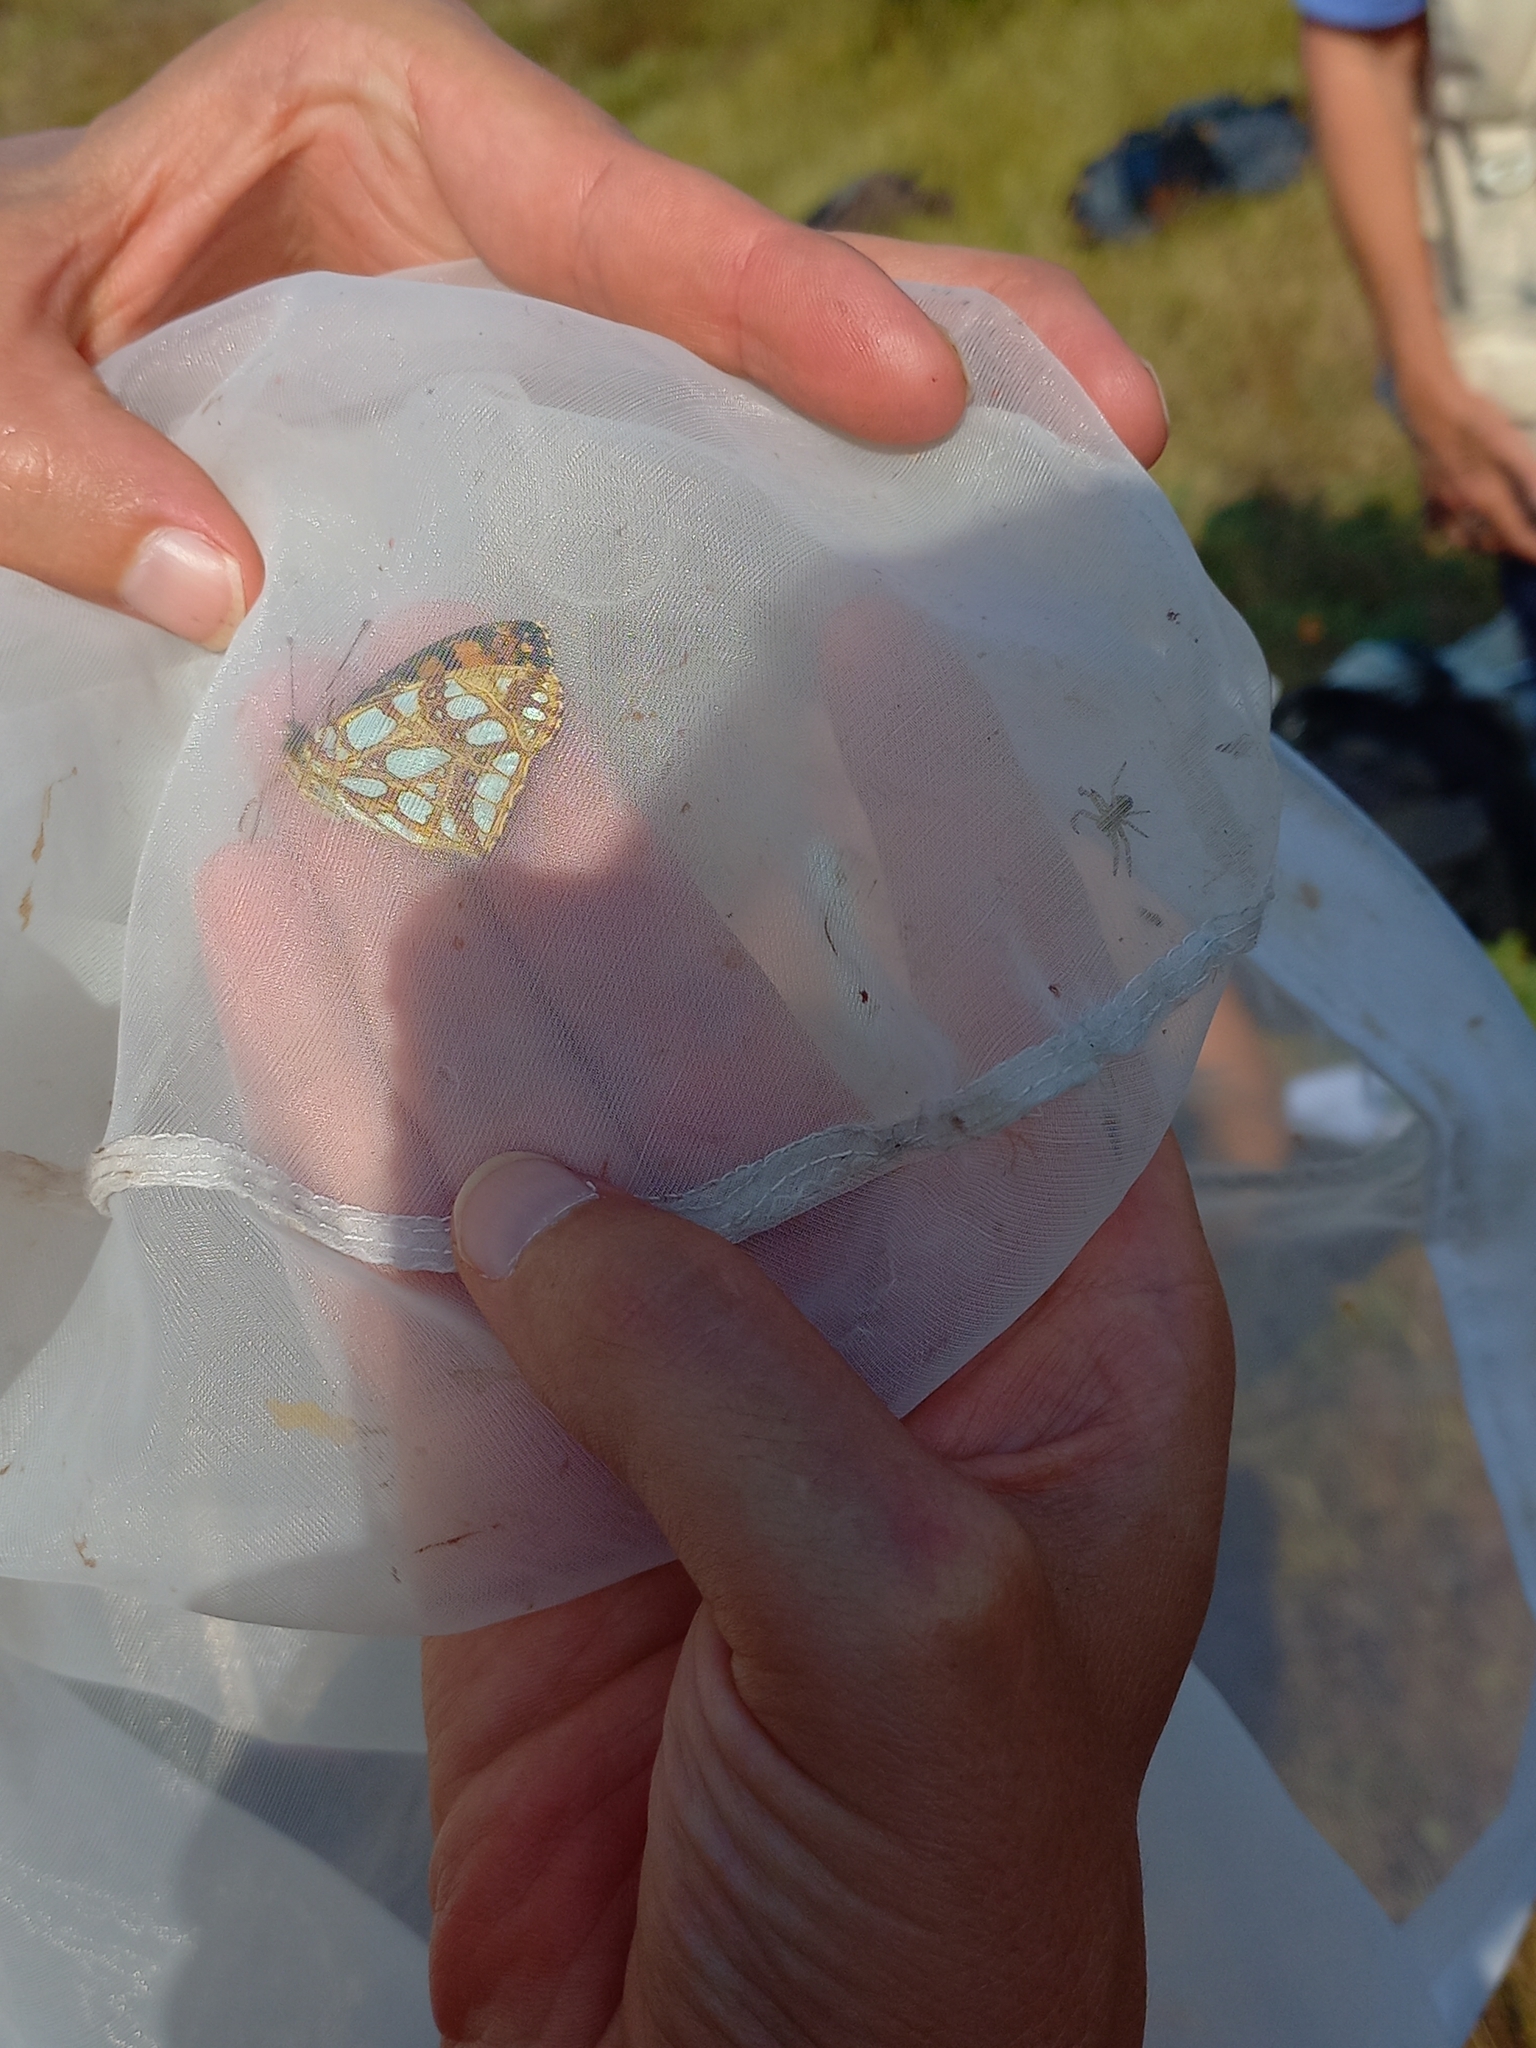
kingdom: Animalia
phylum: Arthropoda
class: Insecta
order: Lepidoptera
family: Nymphalidae
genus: Issoria
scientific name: Issoria lathonia
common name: Queen of spain fritillary
